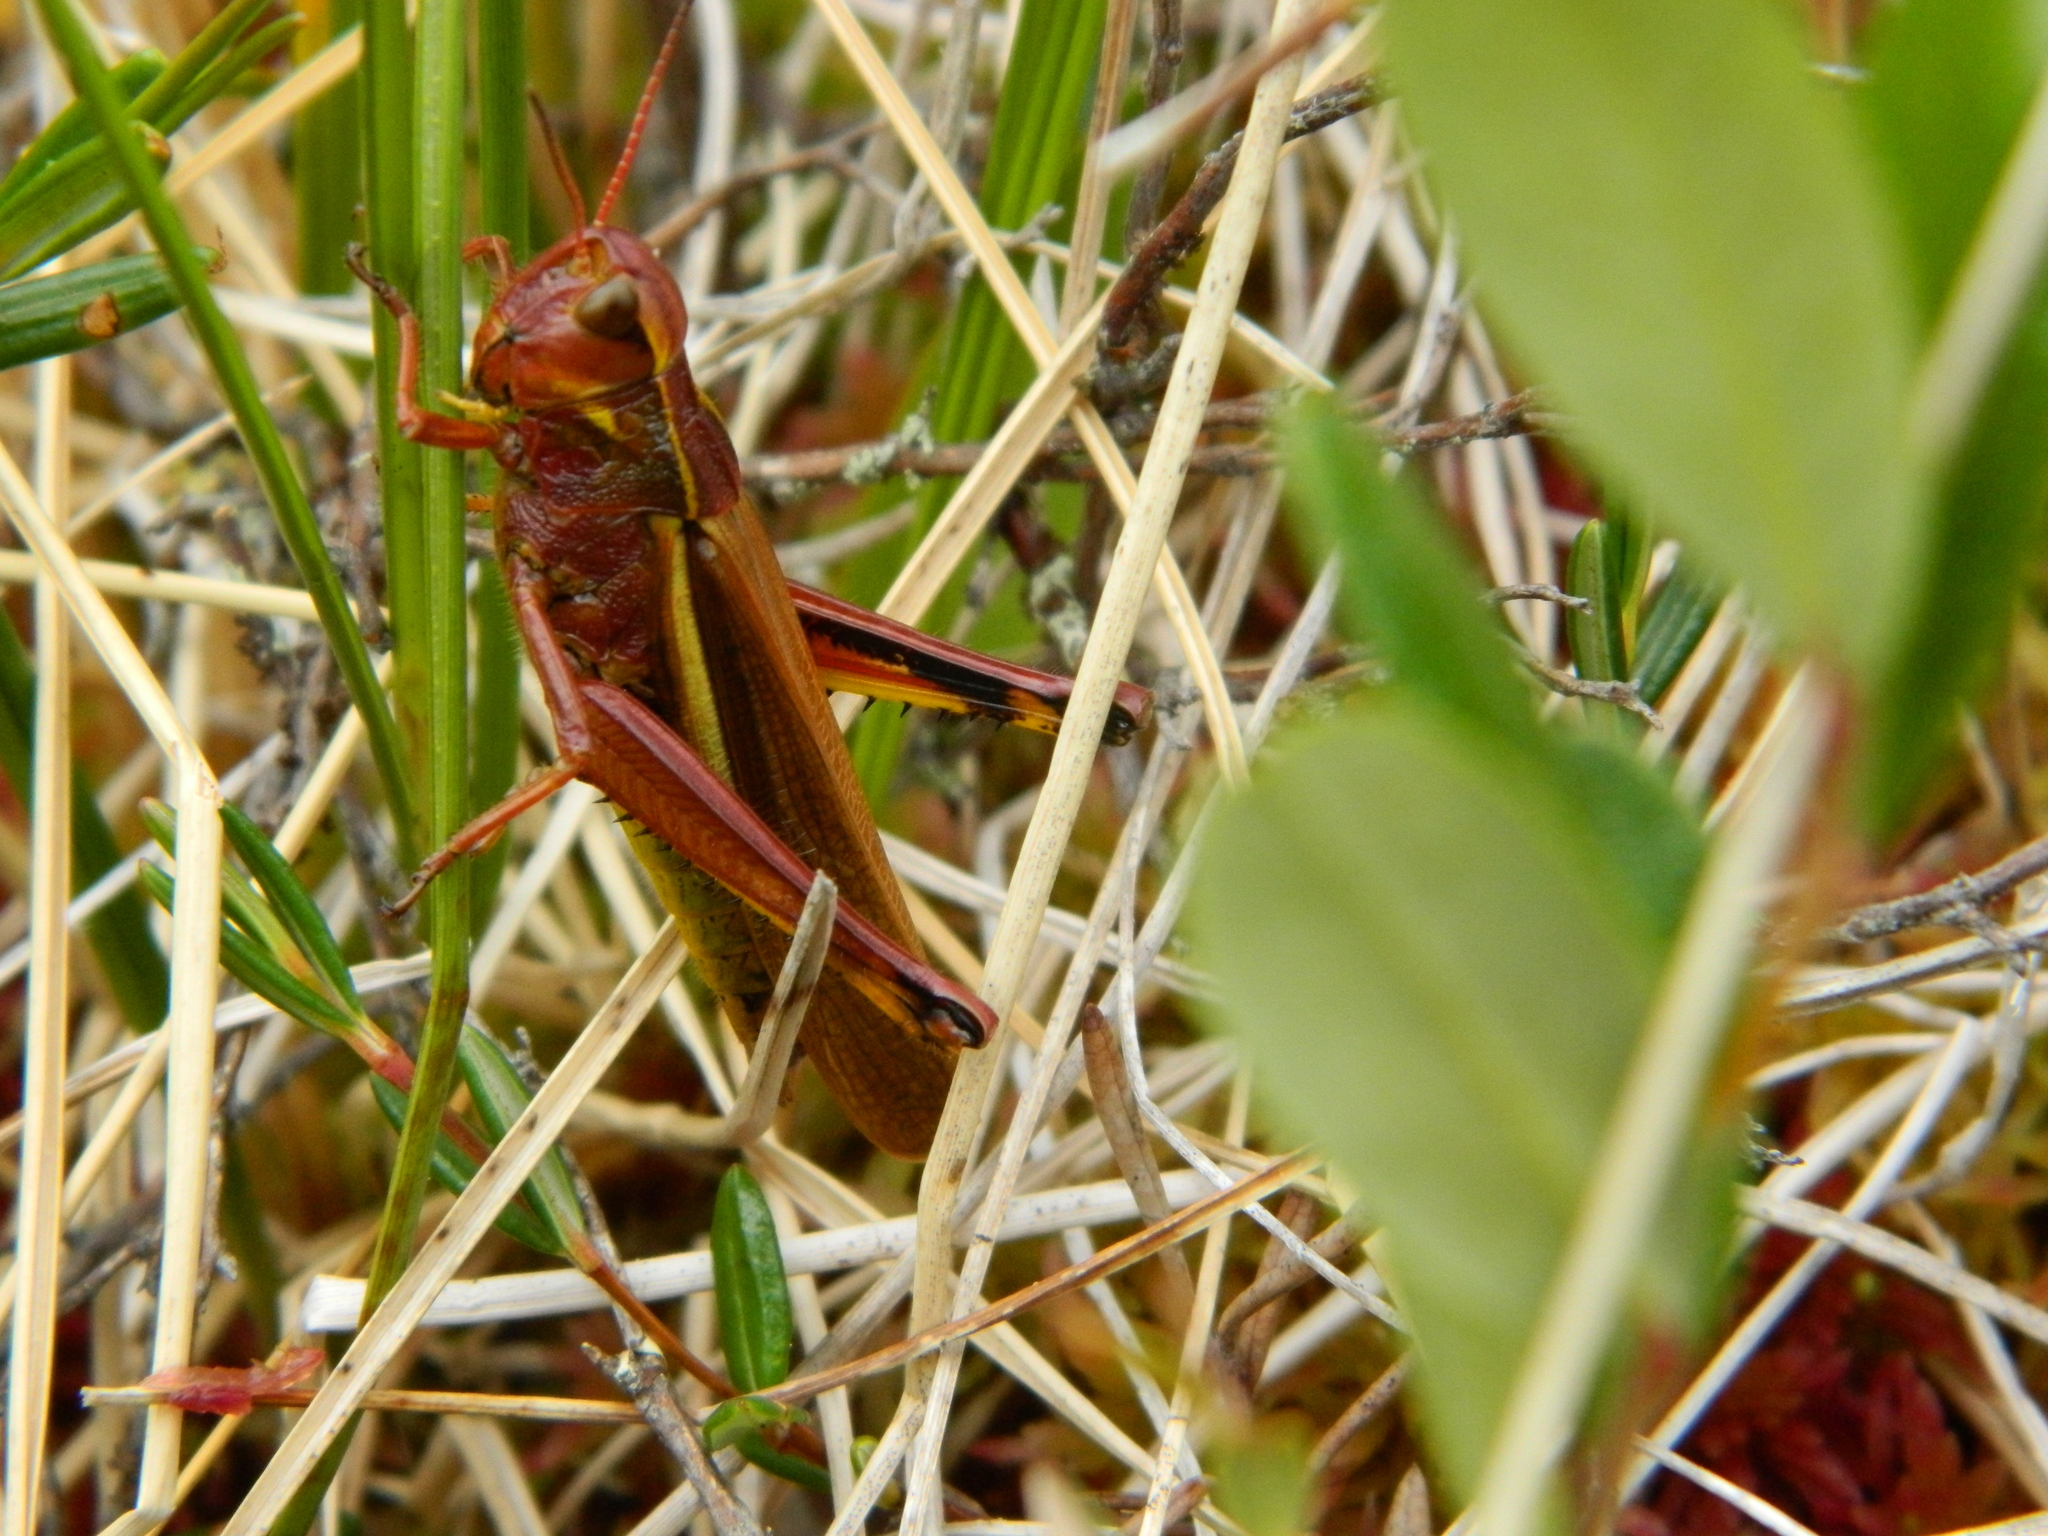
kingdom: Animalia
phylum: Arthropoda
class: Insecta
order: Orthoptera
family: Acrididae
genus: Stethophyma
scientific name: Stethophyma lineatum
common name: Striped sedge locust
